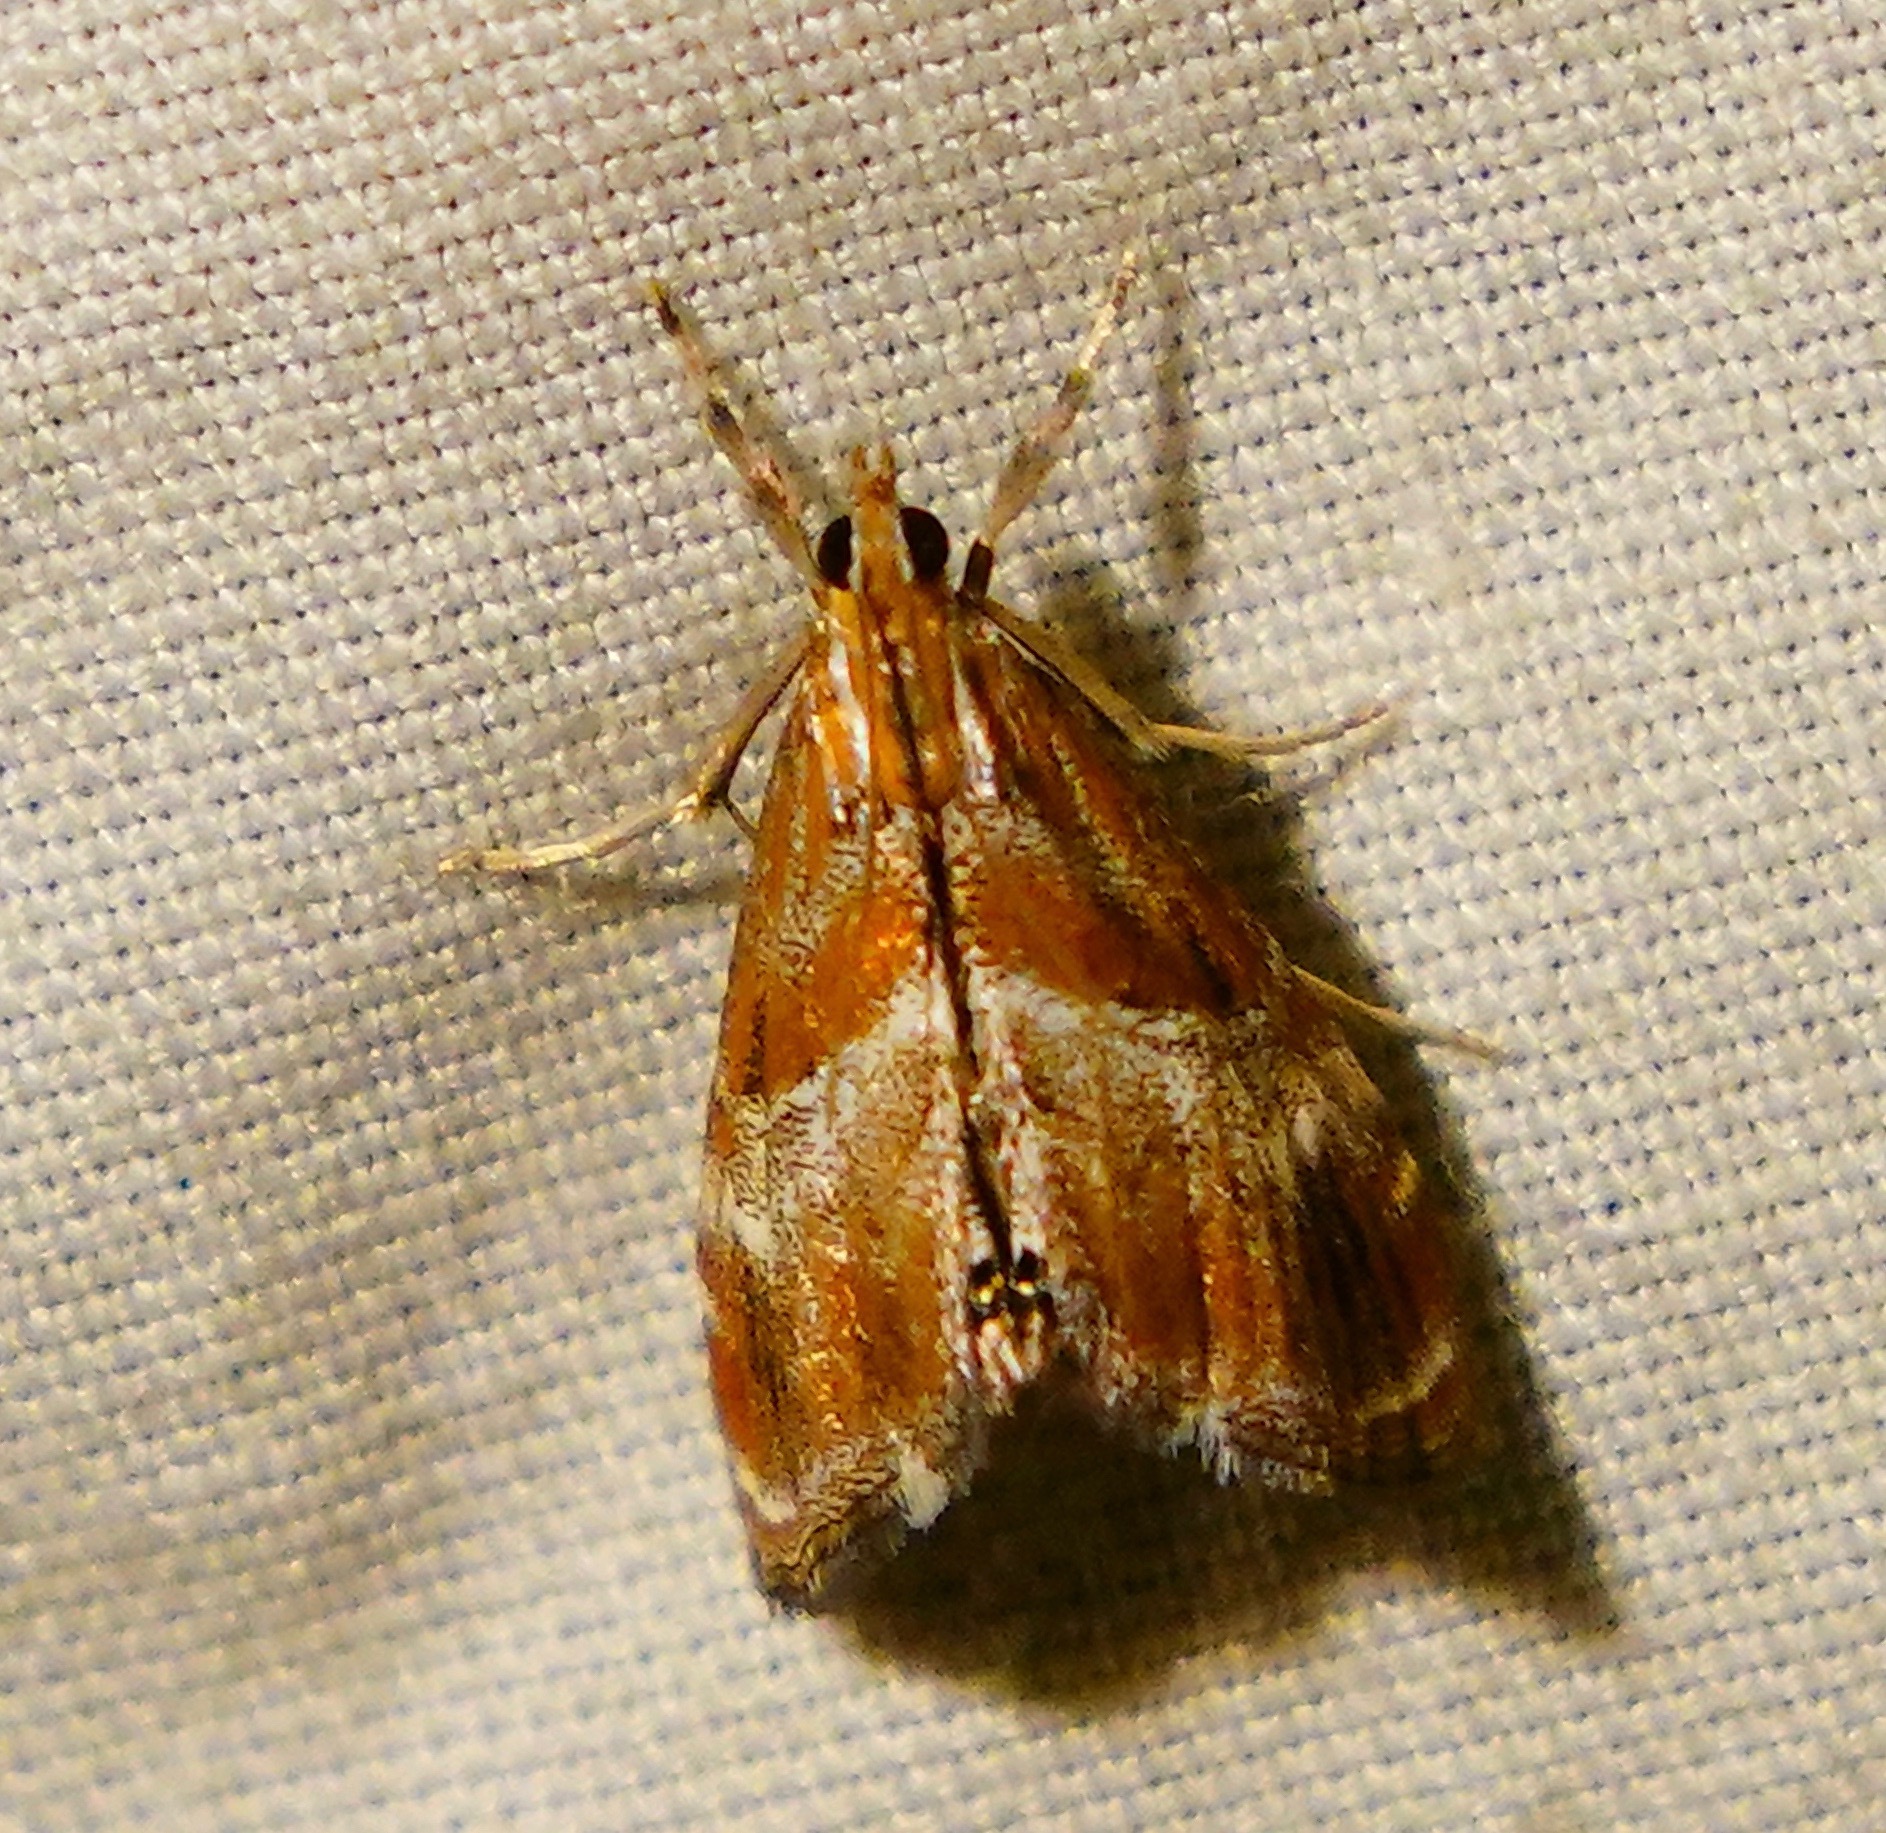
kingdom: Animalia
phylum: Arthropoda
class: Insecta
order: Lepidoptera
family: Crambidae
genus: Dicymolomia
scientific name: Dicymolomia metalliferalis
